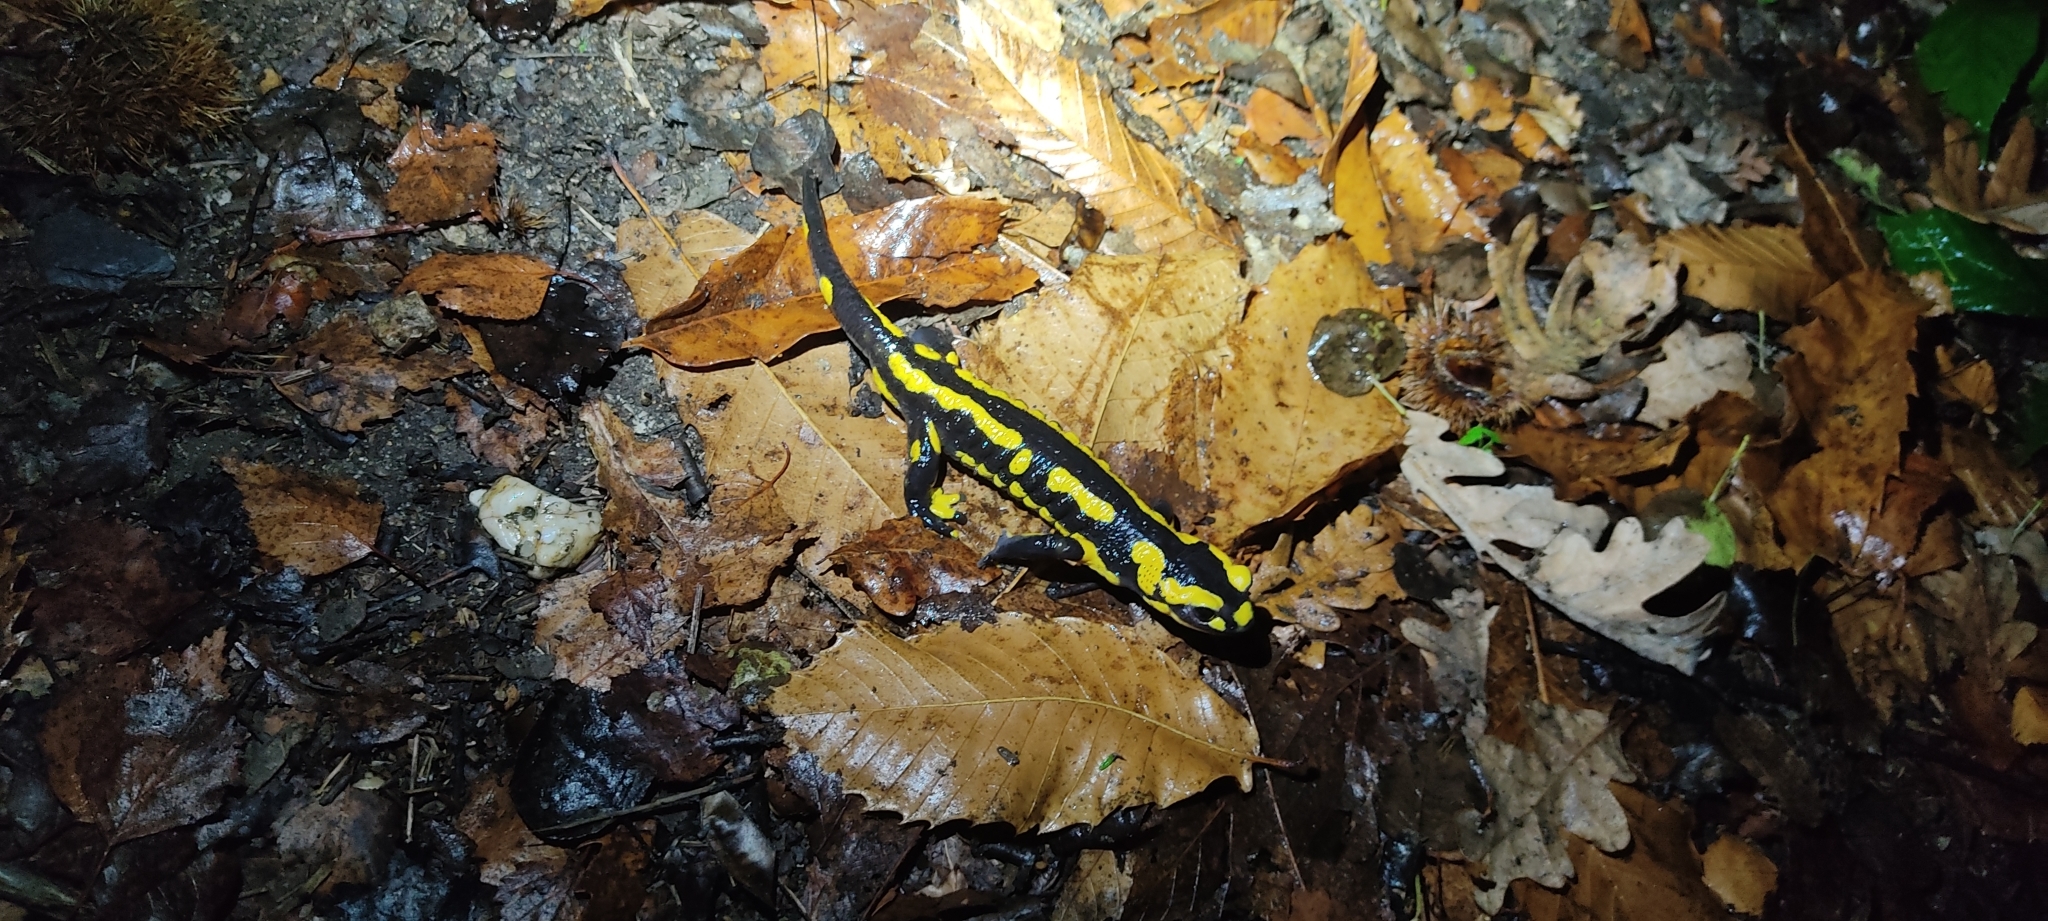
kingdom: Animalia
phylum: Chordata
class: Amphibia
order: Caudata
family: Salamandridae
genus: Salamandra
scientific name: Salamandra salamandra
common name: Fire salamander
